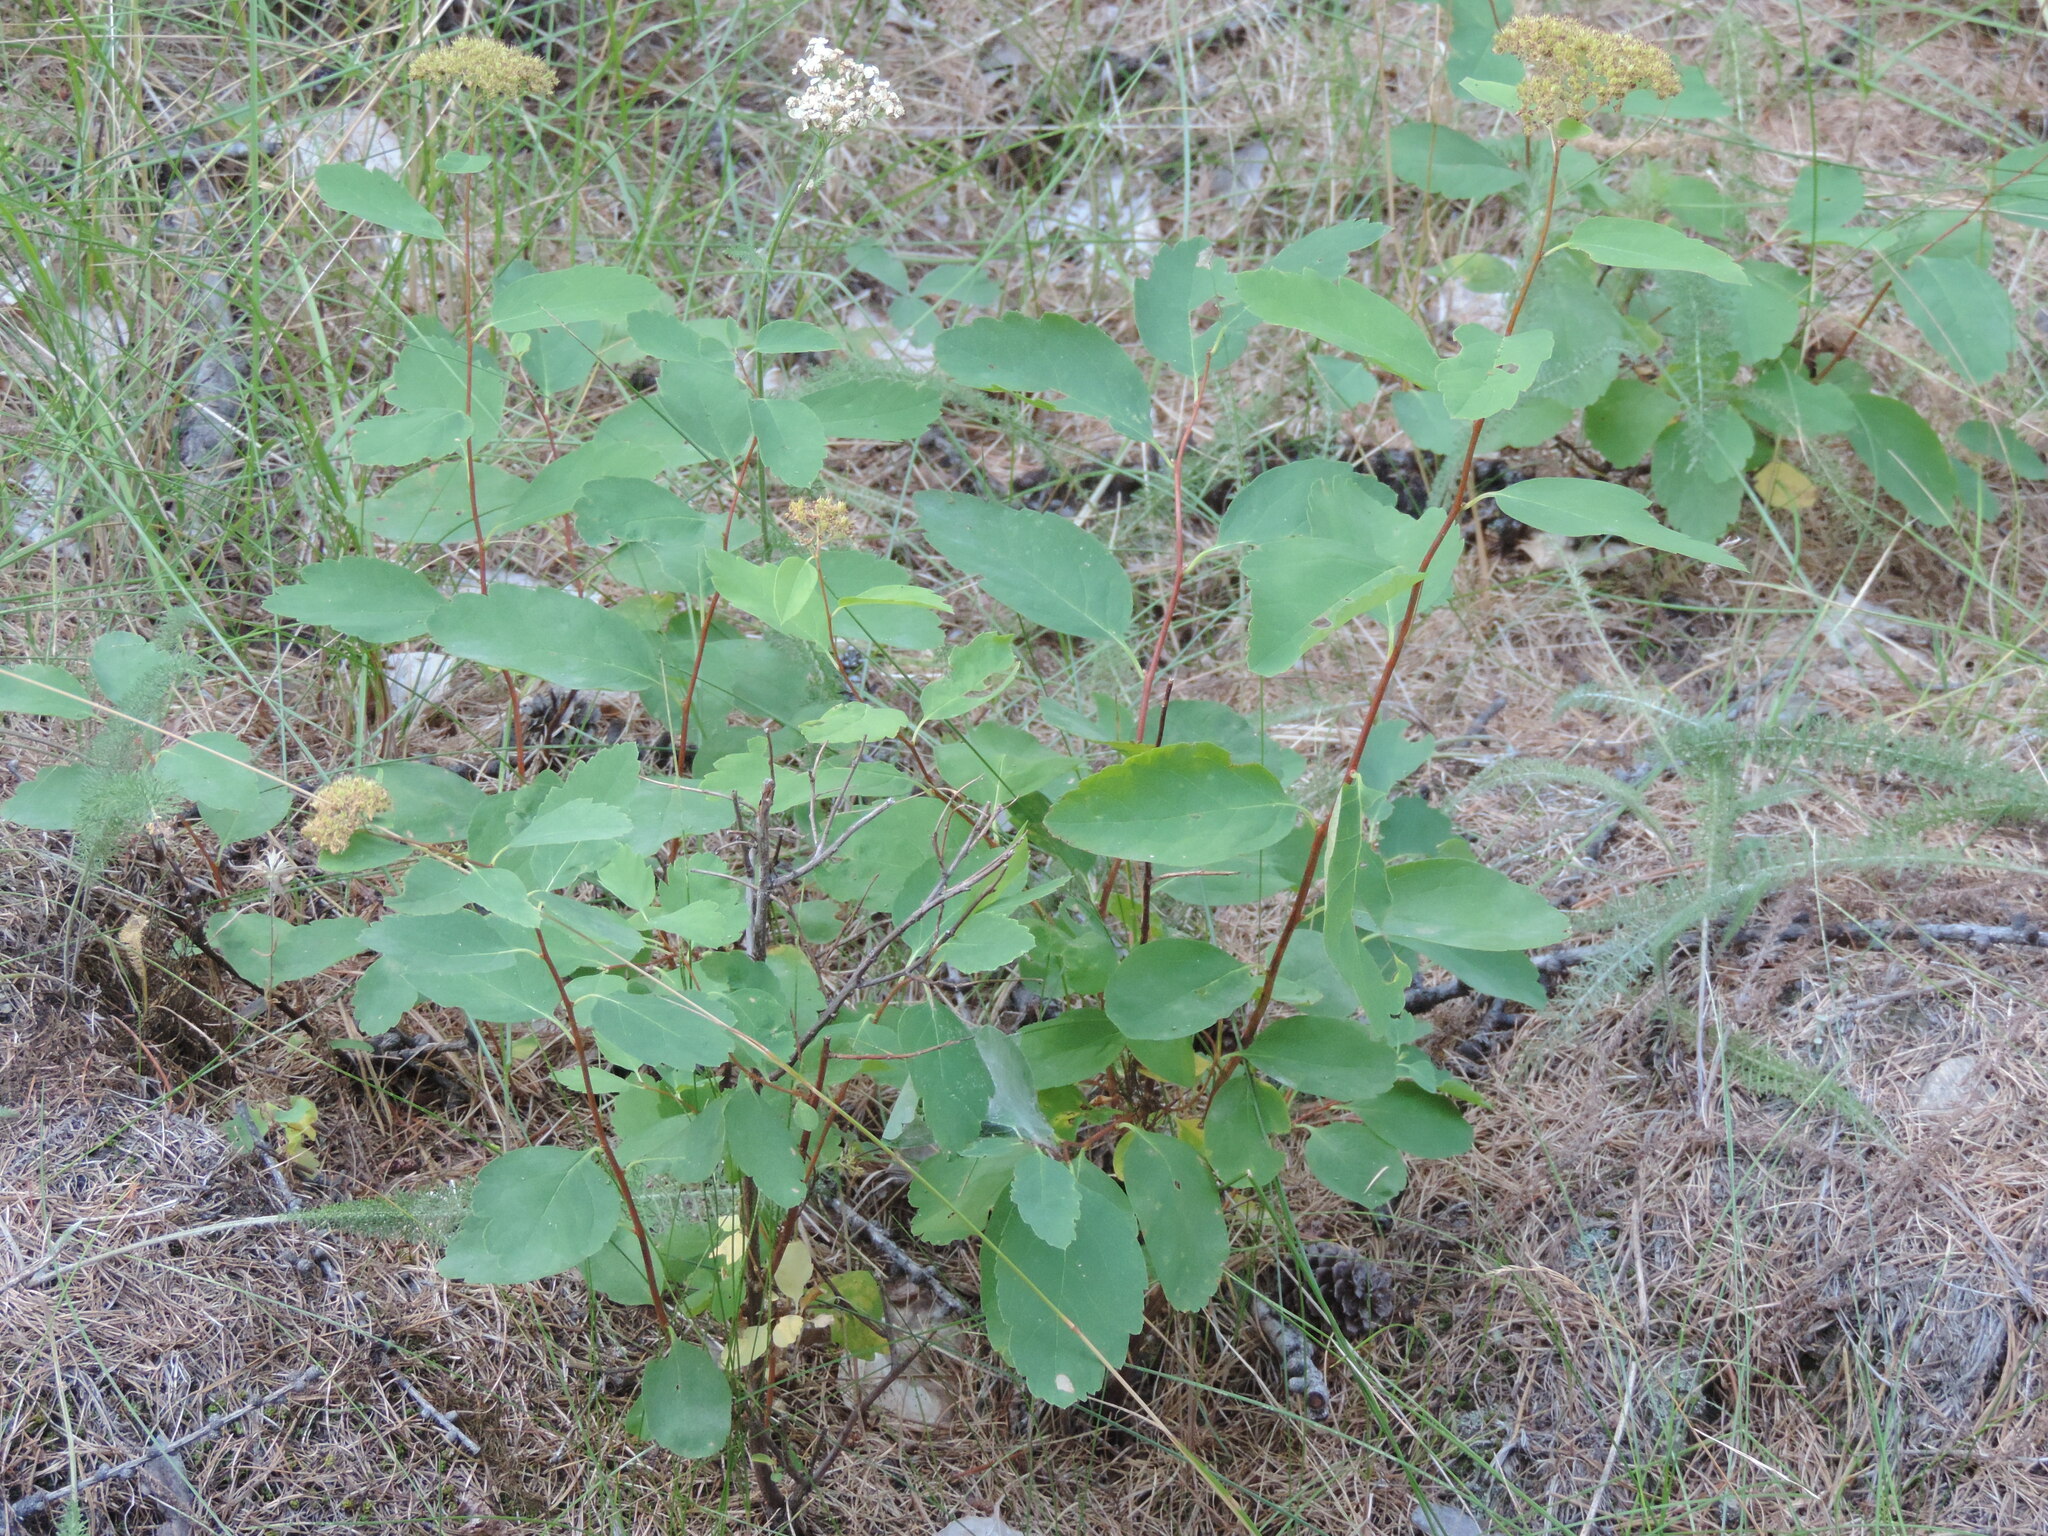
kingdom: Plantae
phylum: Tracheophyta
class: Magnoliopsida
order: Rosales
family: Rosaceae
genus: Spiraea
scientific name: Spiraea lucida
